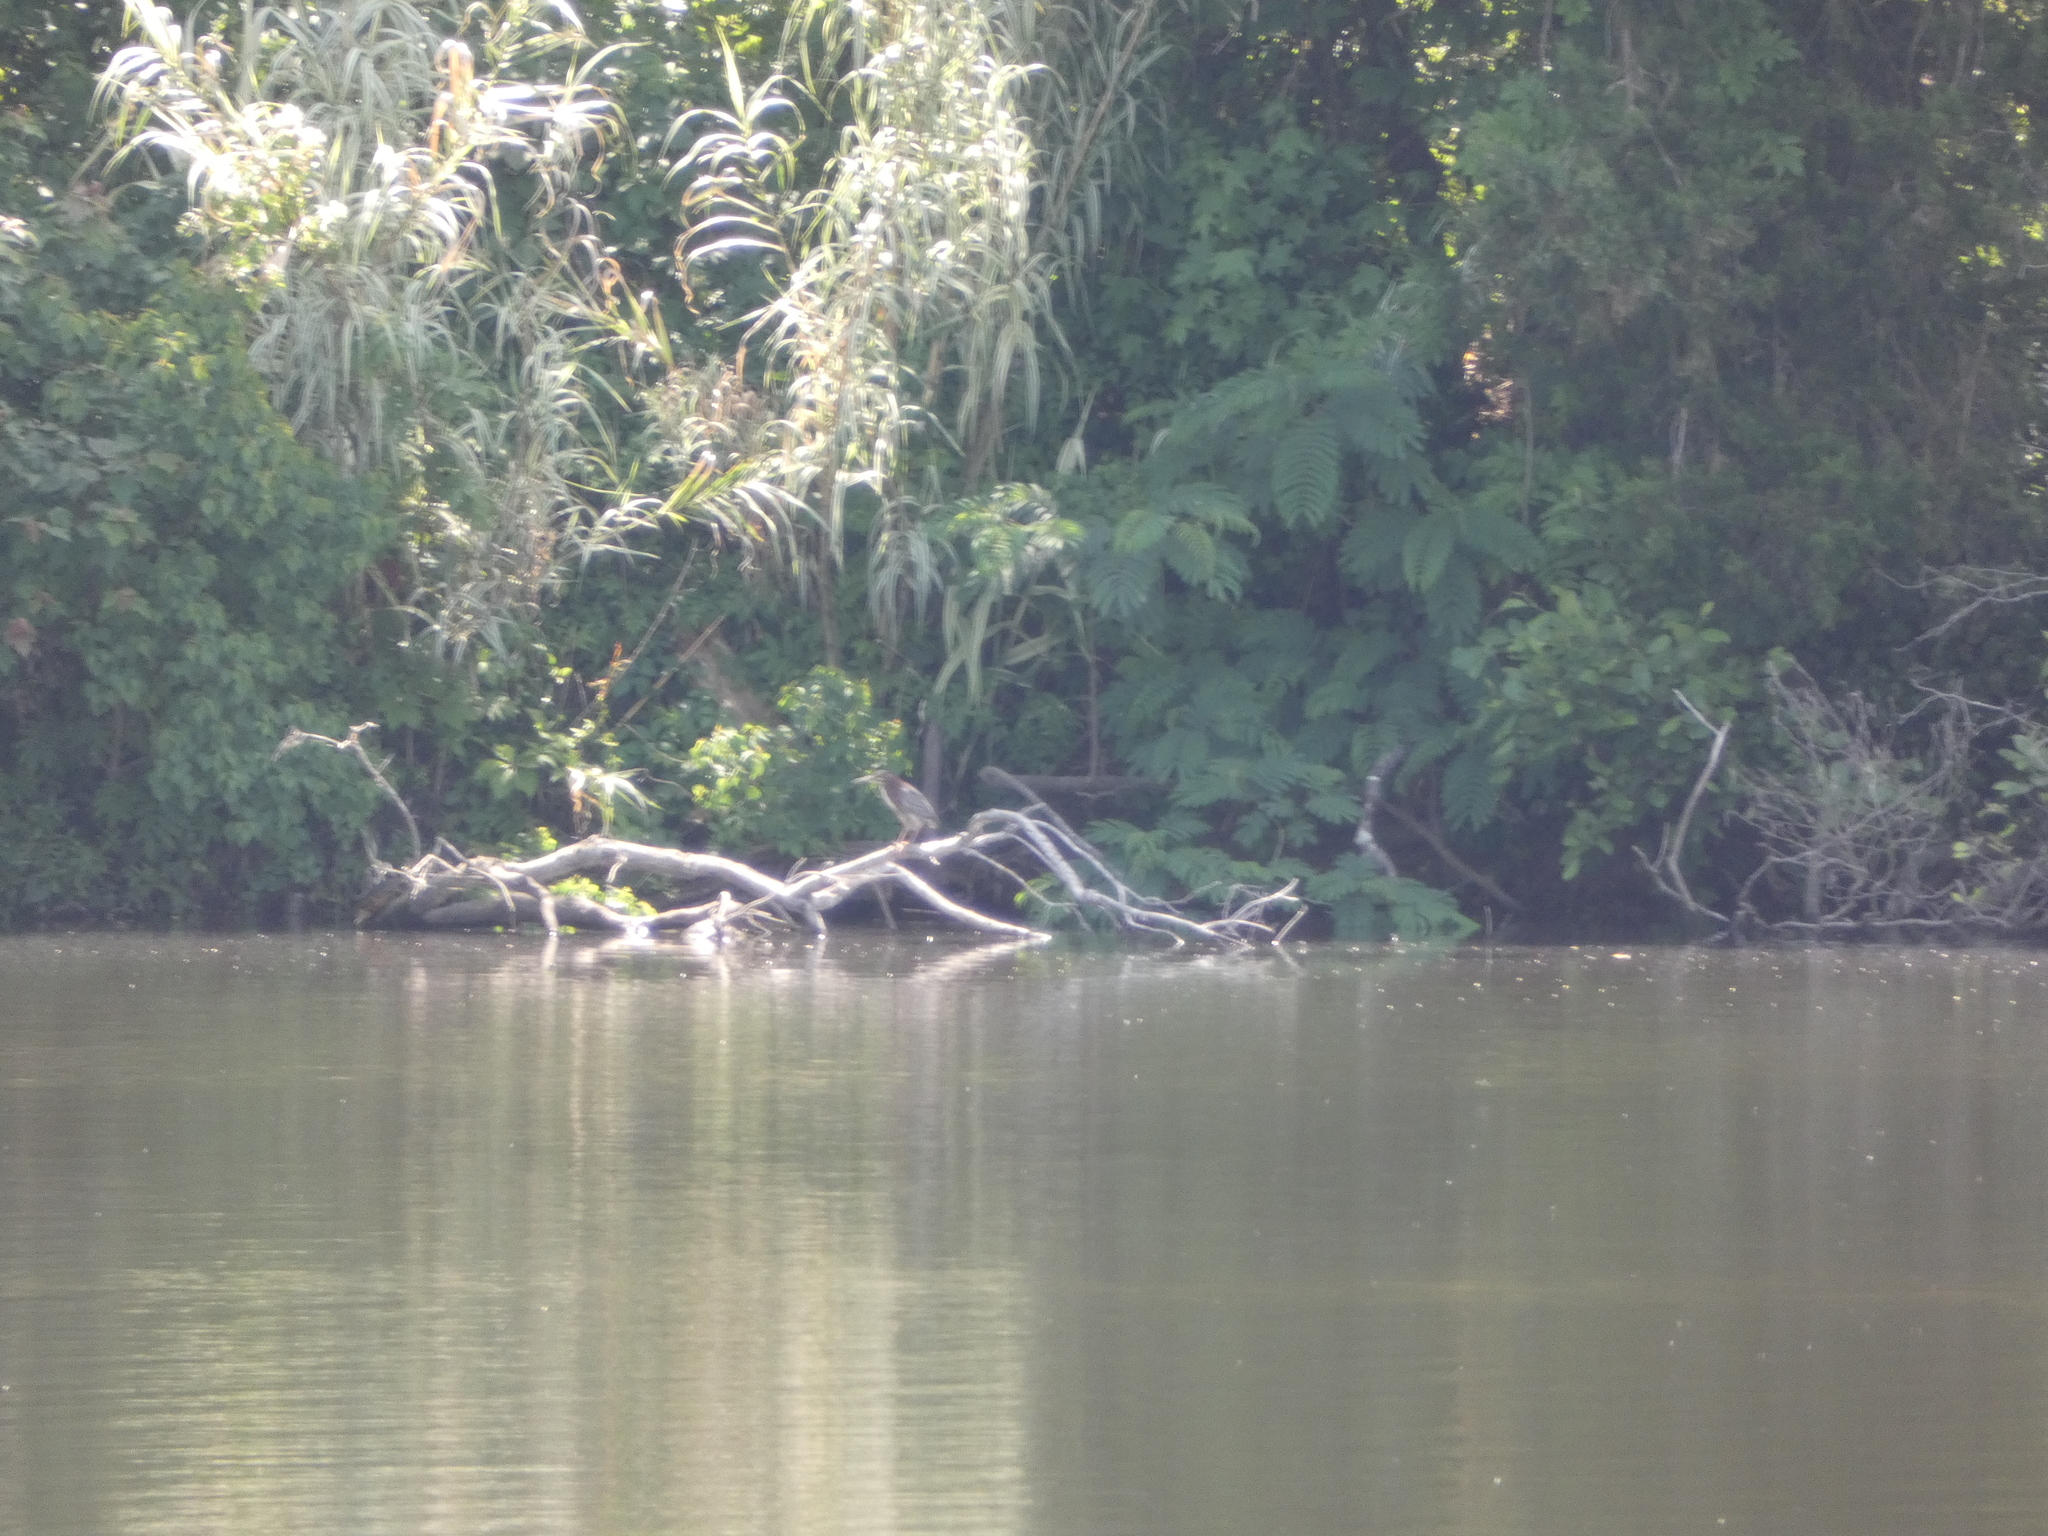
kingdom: Animalia
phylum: Chordata
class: Aves
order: Pelecaniformes
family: Ardeidae
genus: Butorides
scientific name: Butorides virescens
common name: Green heron
